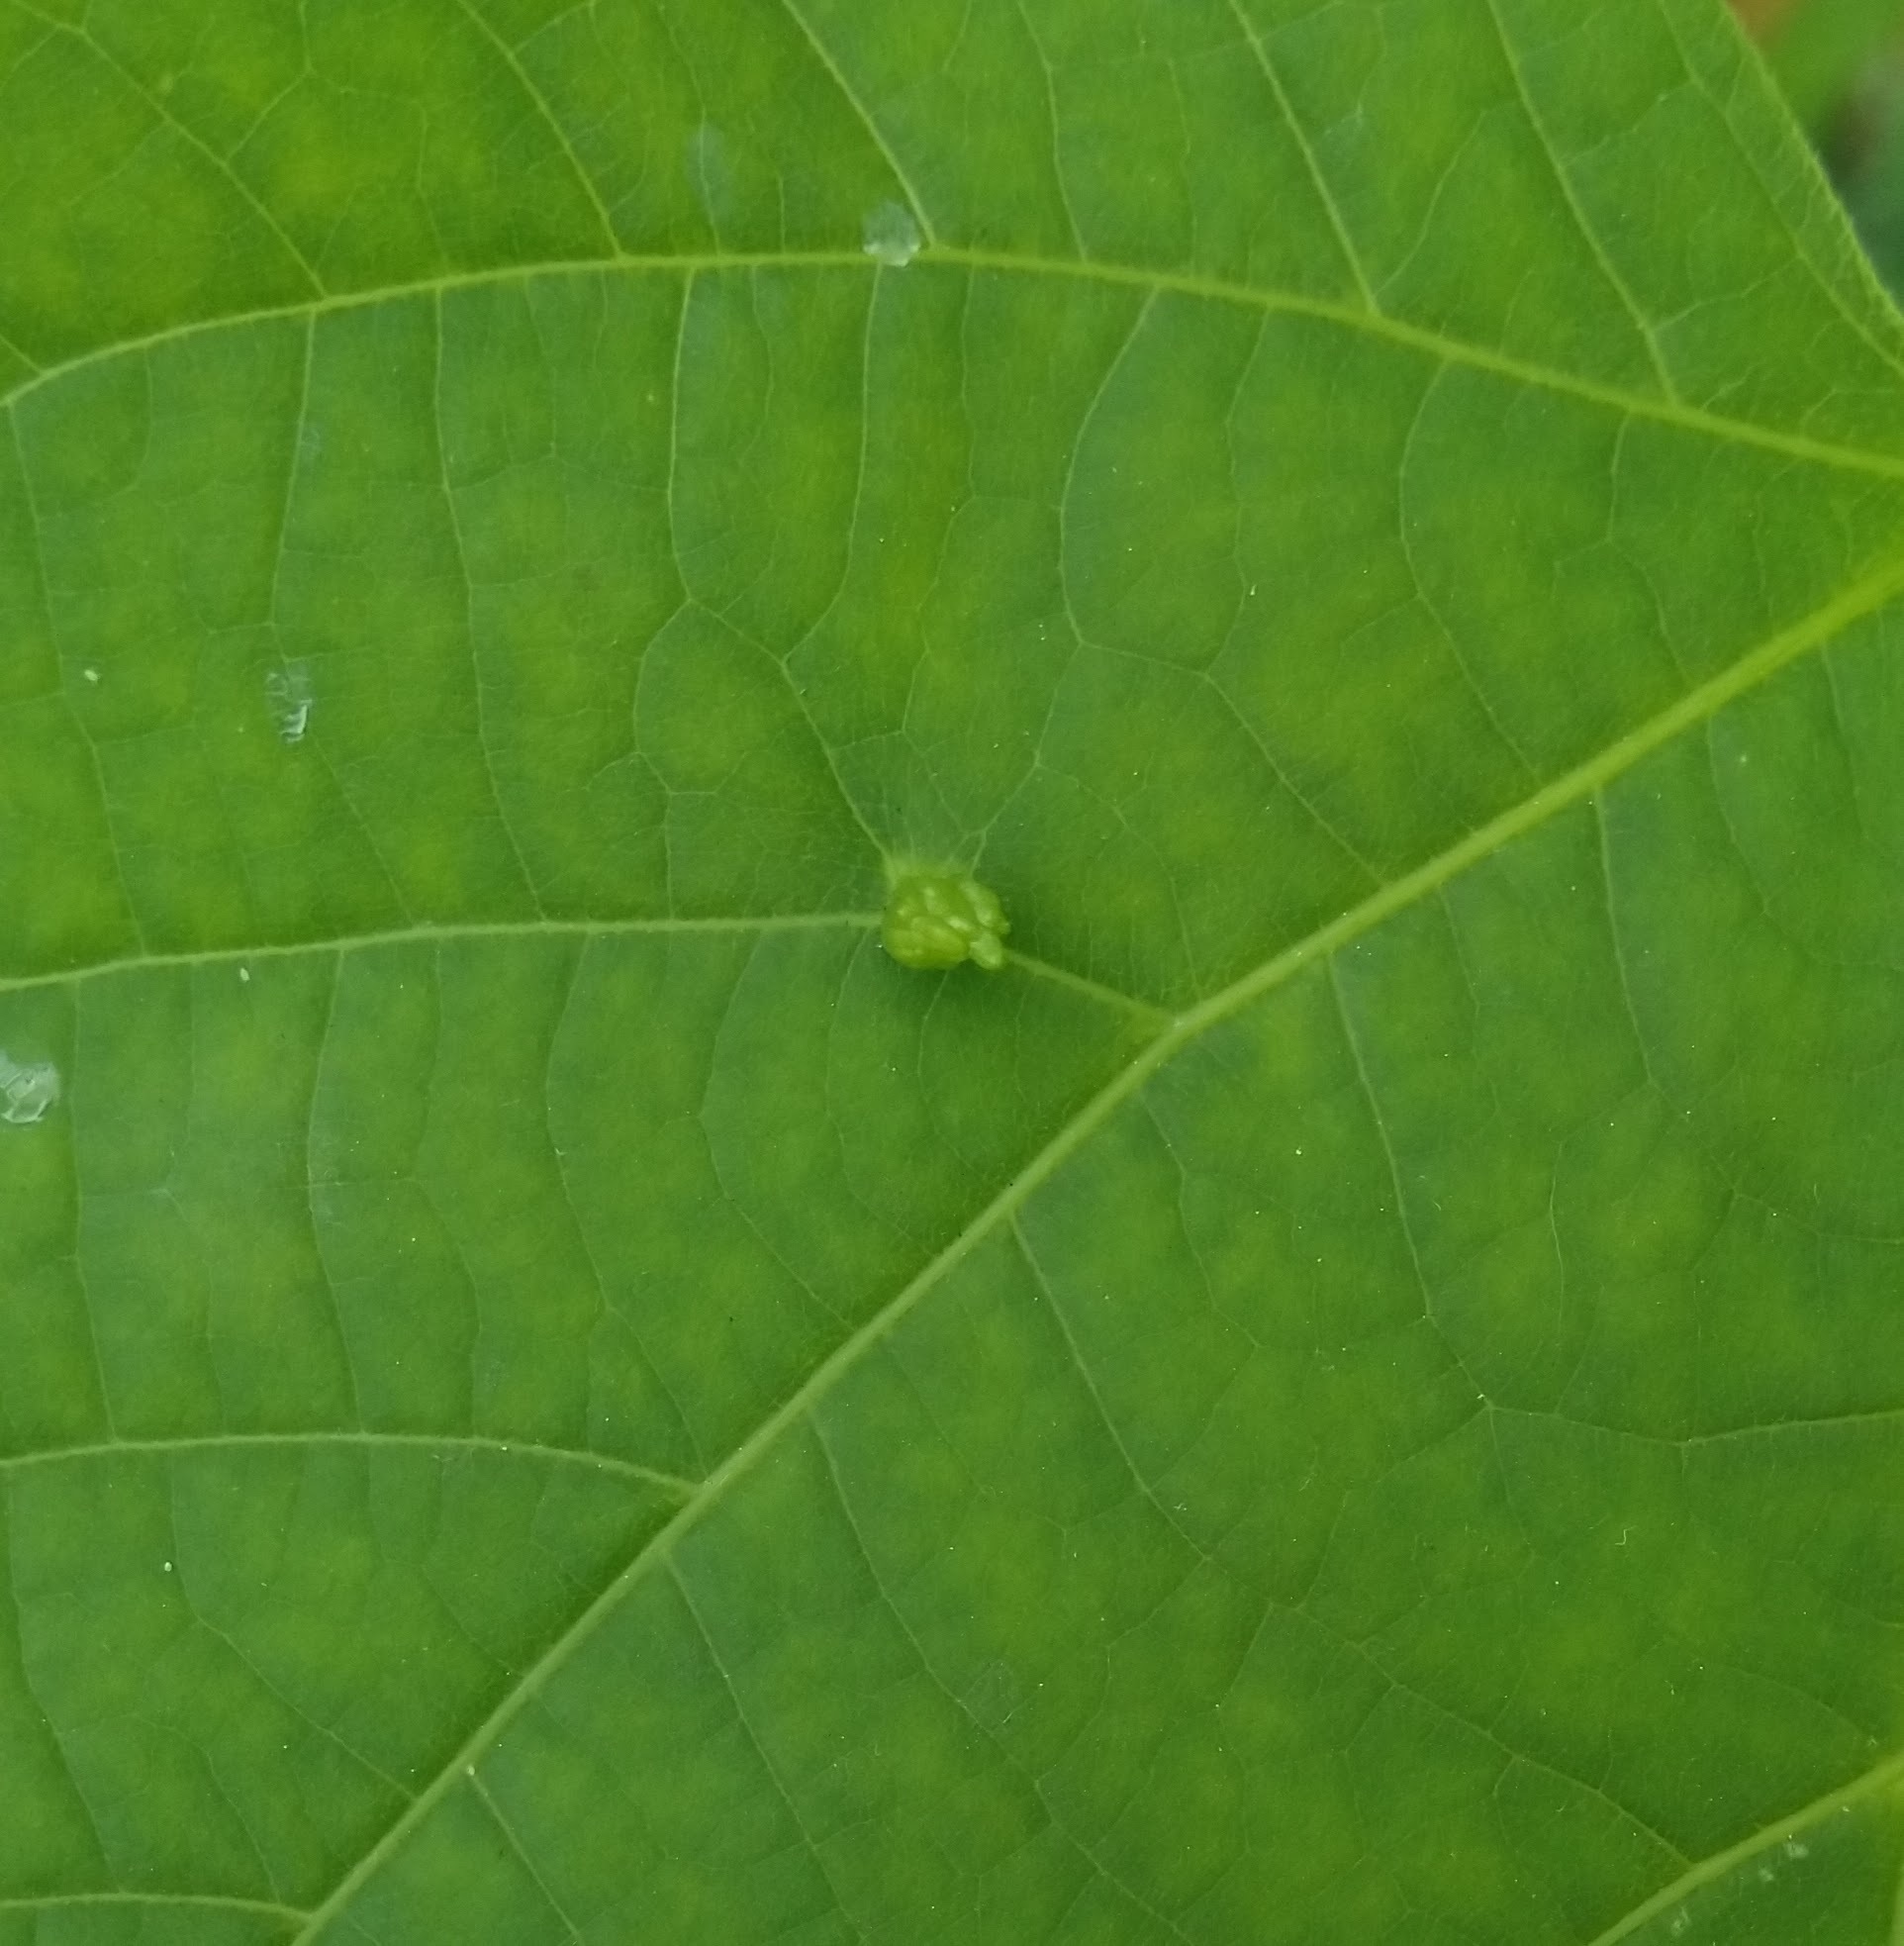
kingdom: Animalia
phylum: Arthropoda
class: Arachnida
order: Trombidiformes
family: Eriophyidae
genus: Eriophyes
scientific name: Eriophyes tiliae
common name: Red nail gall mite
